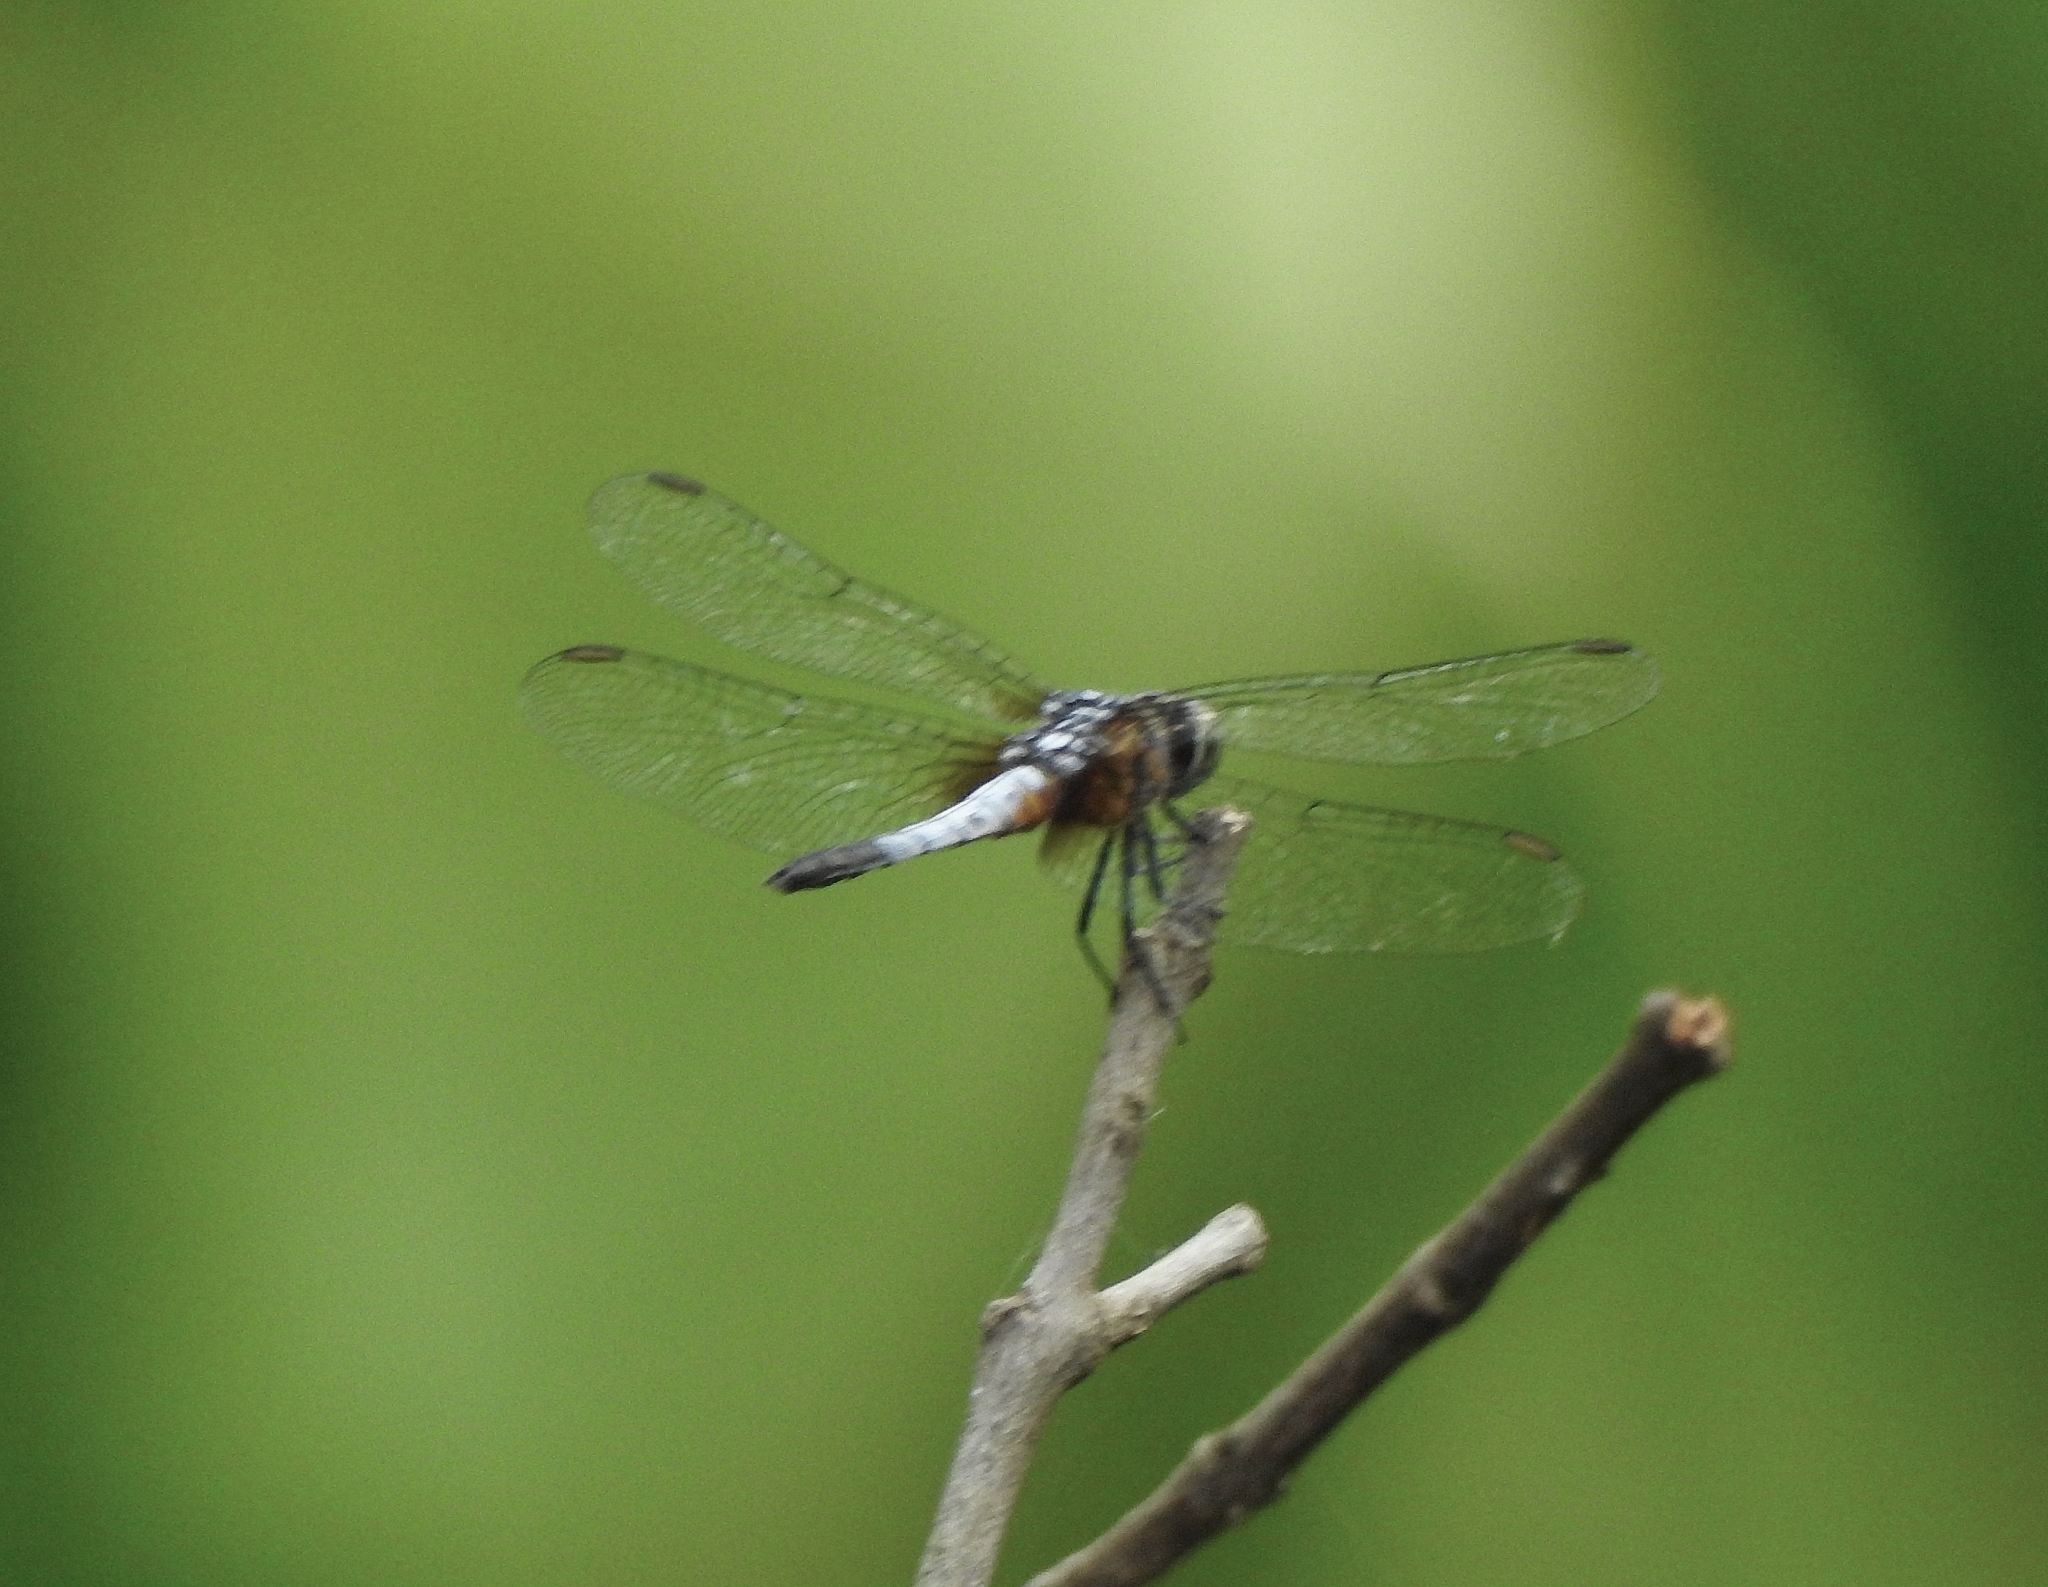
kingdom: Animalia
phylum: Arthropoda
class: Insecta
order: Odonata
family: Libellulidae
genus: Brachydiplax
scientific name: Brachydiplax chalybea
